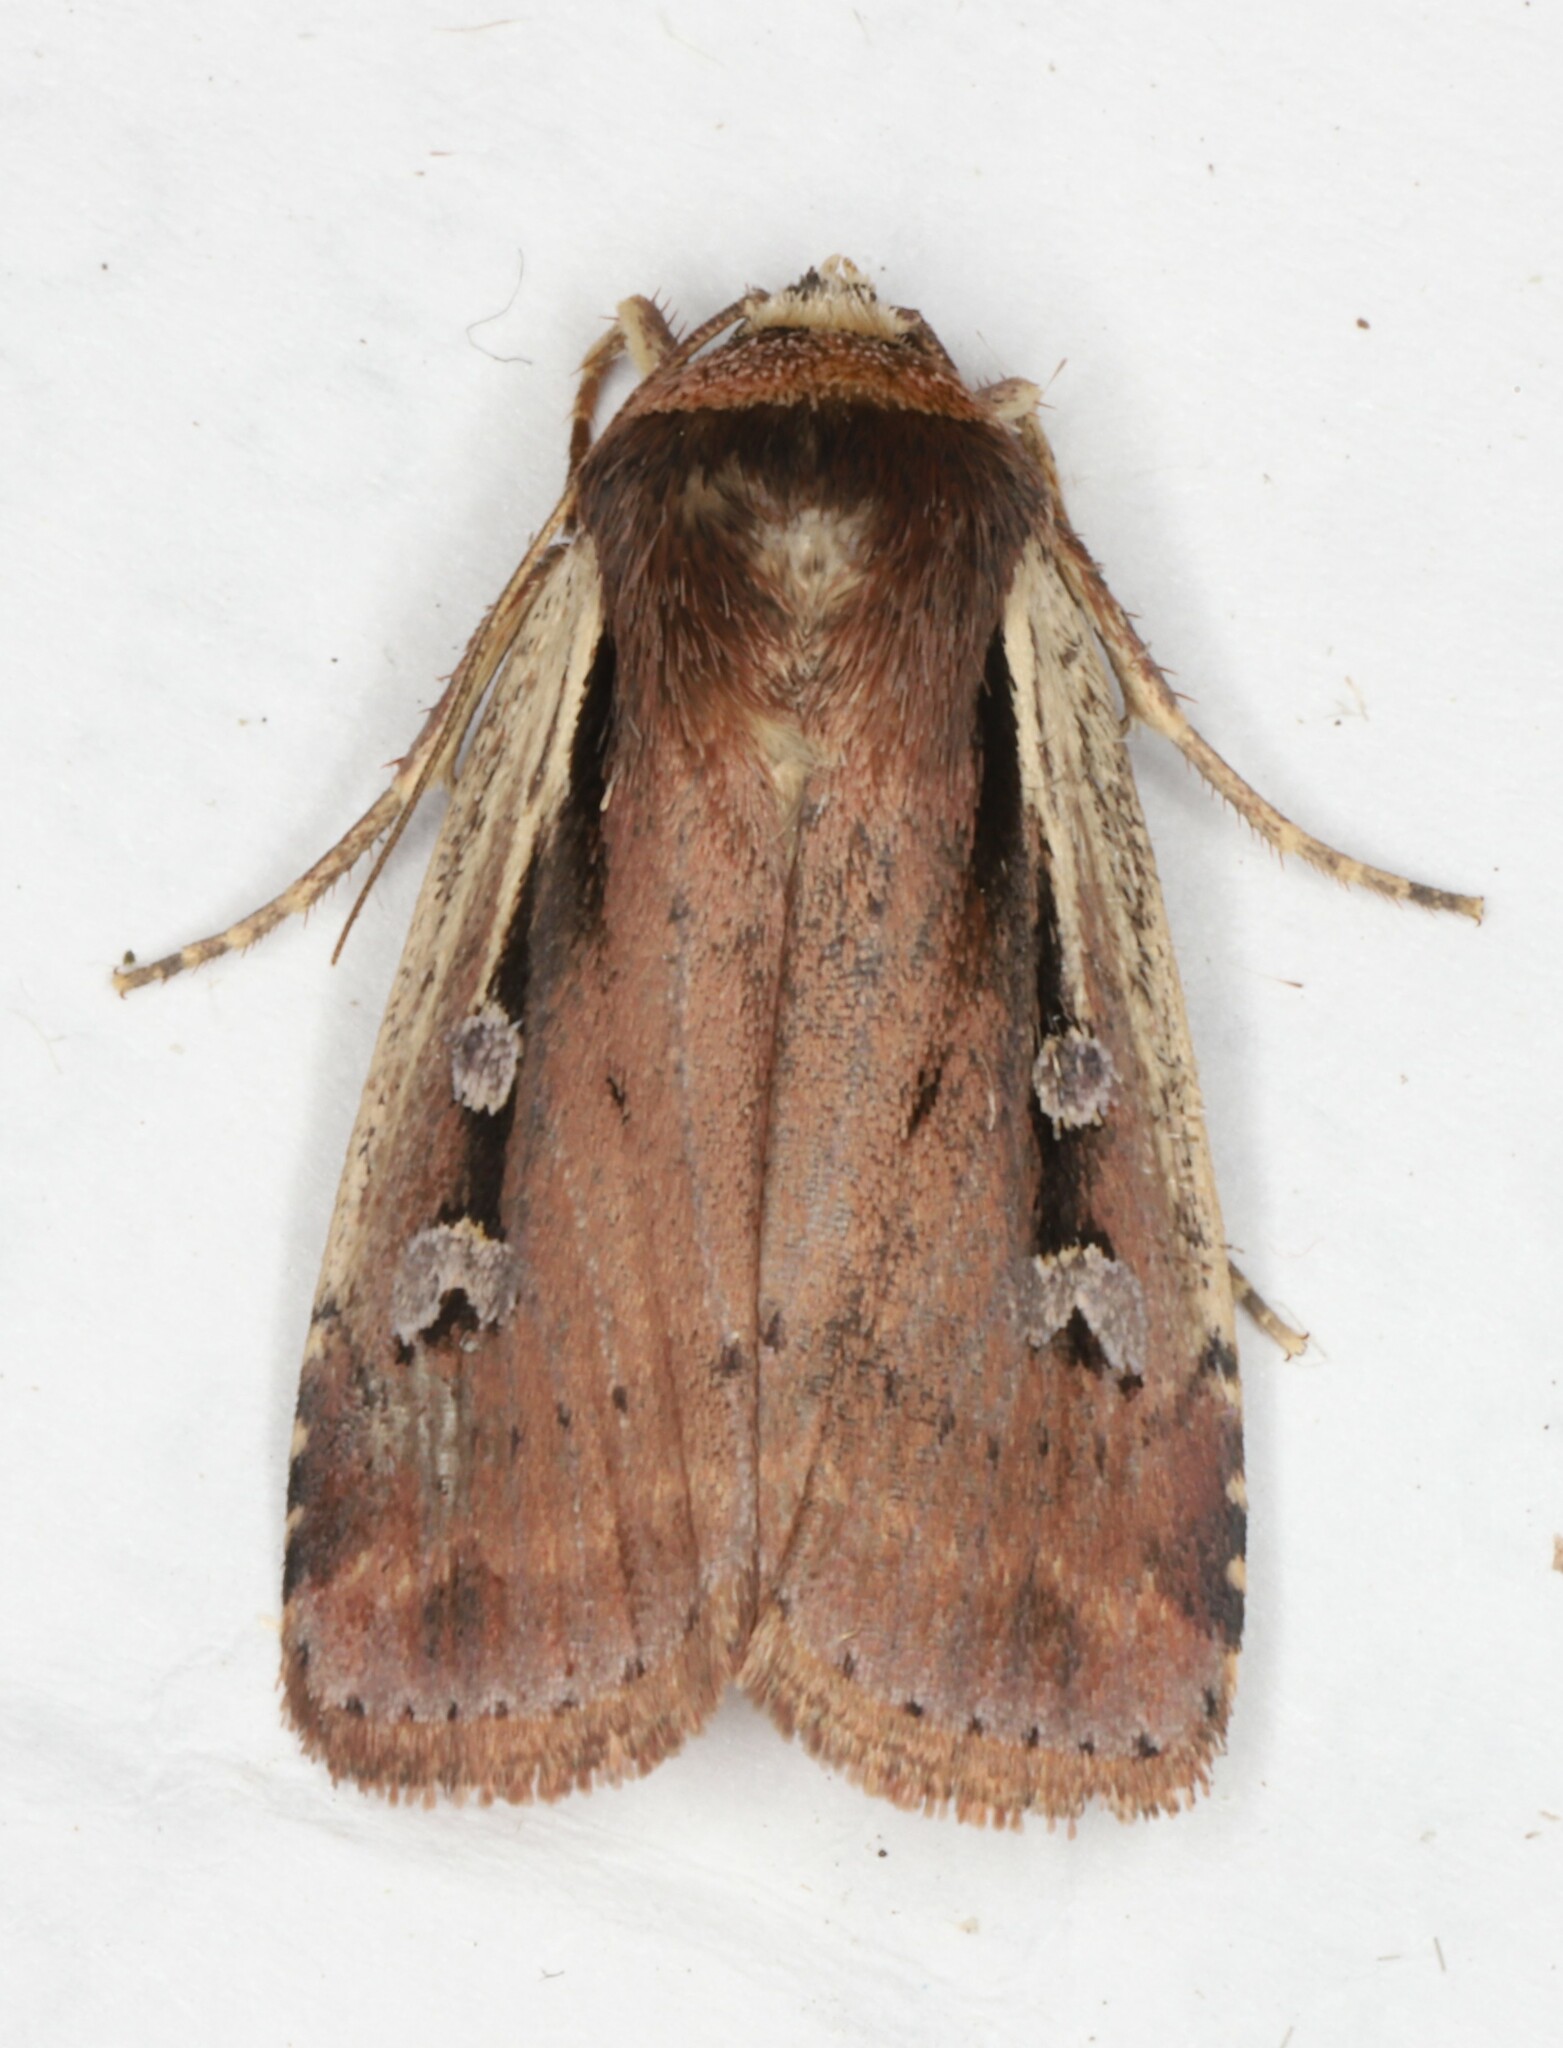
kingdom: Animalia
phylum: Arthropoda
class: Insecta
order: Lepidoptera
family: Noctuidae
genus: Ochropleura
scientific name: Ochropleura implecta
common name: Flame-shouldered dart
